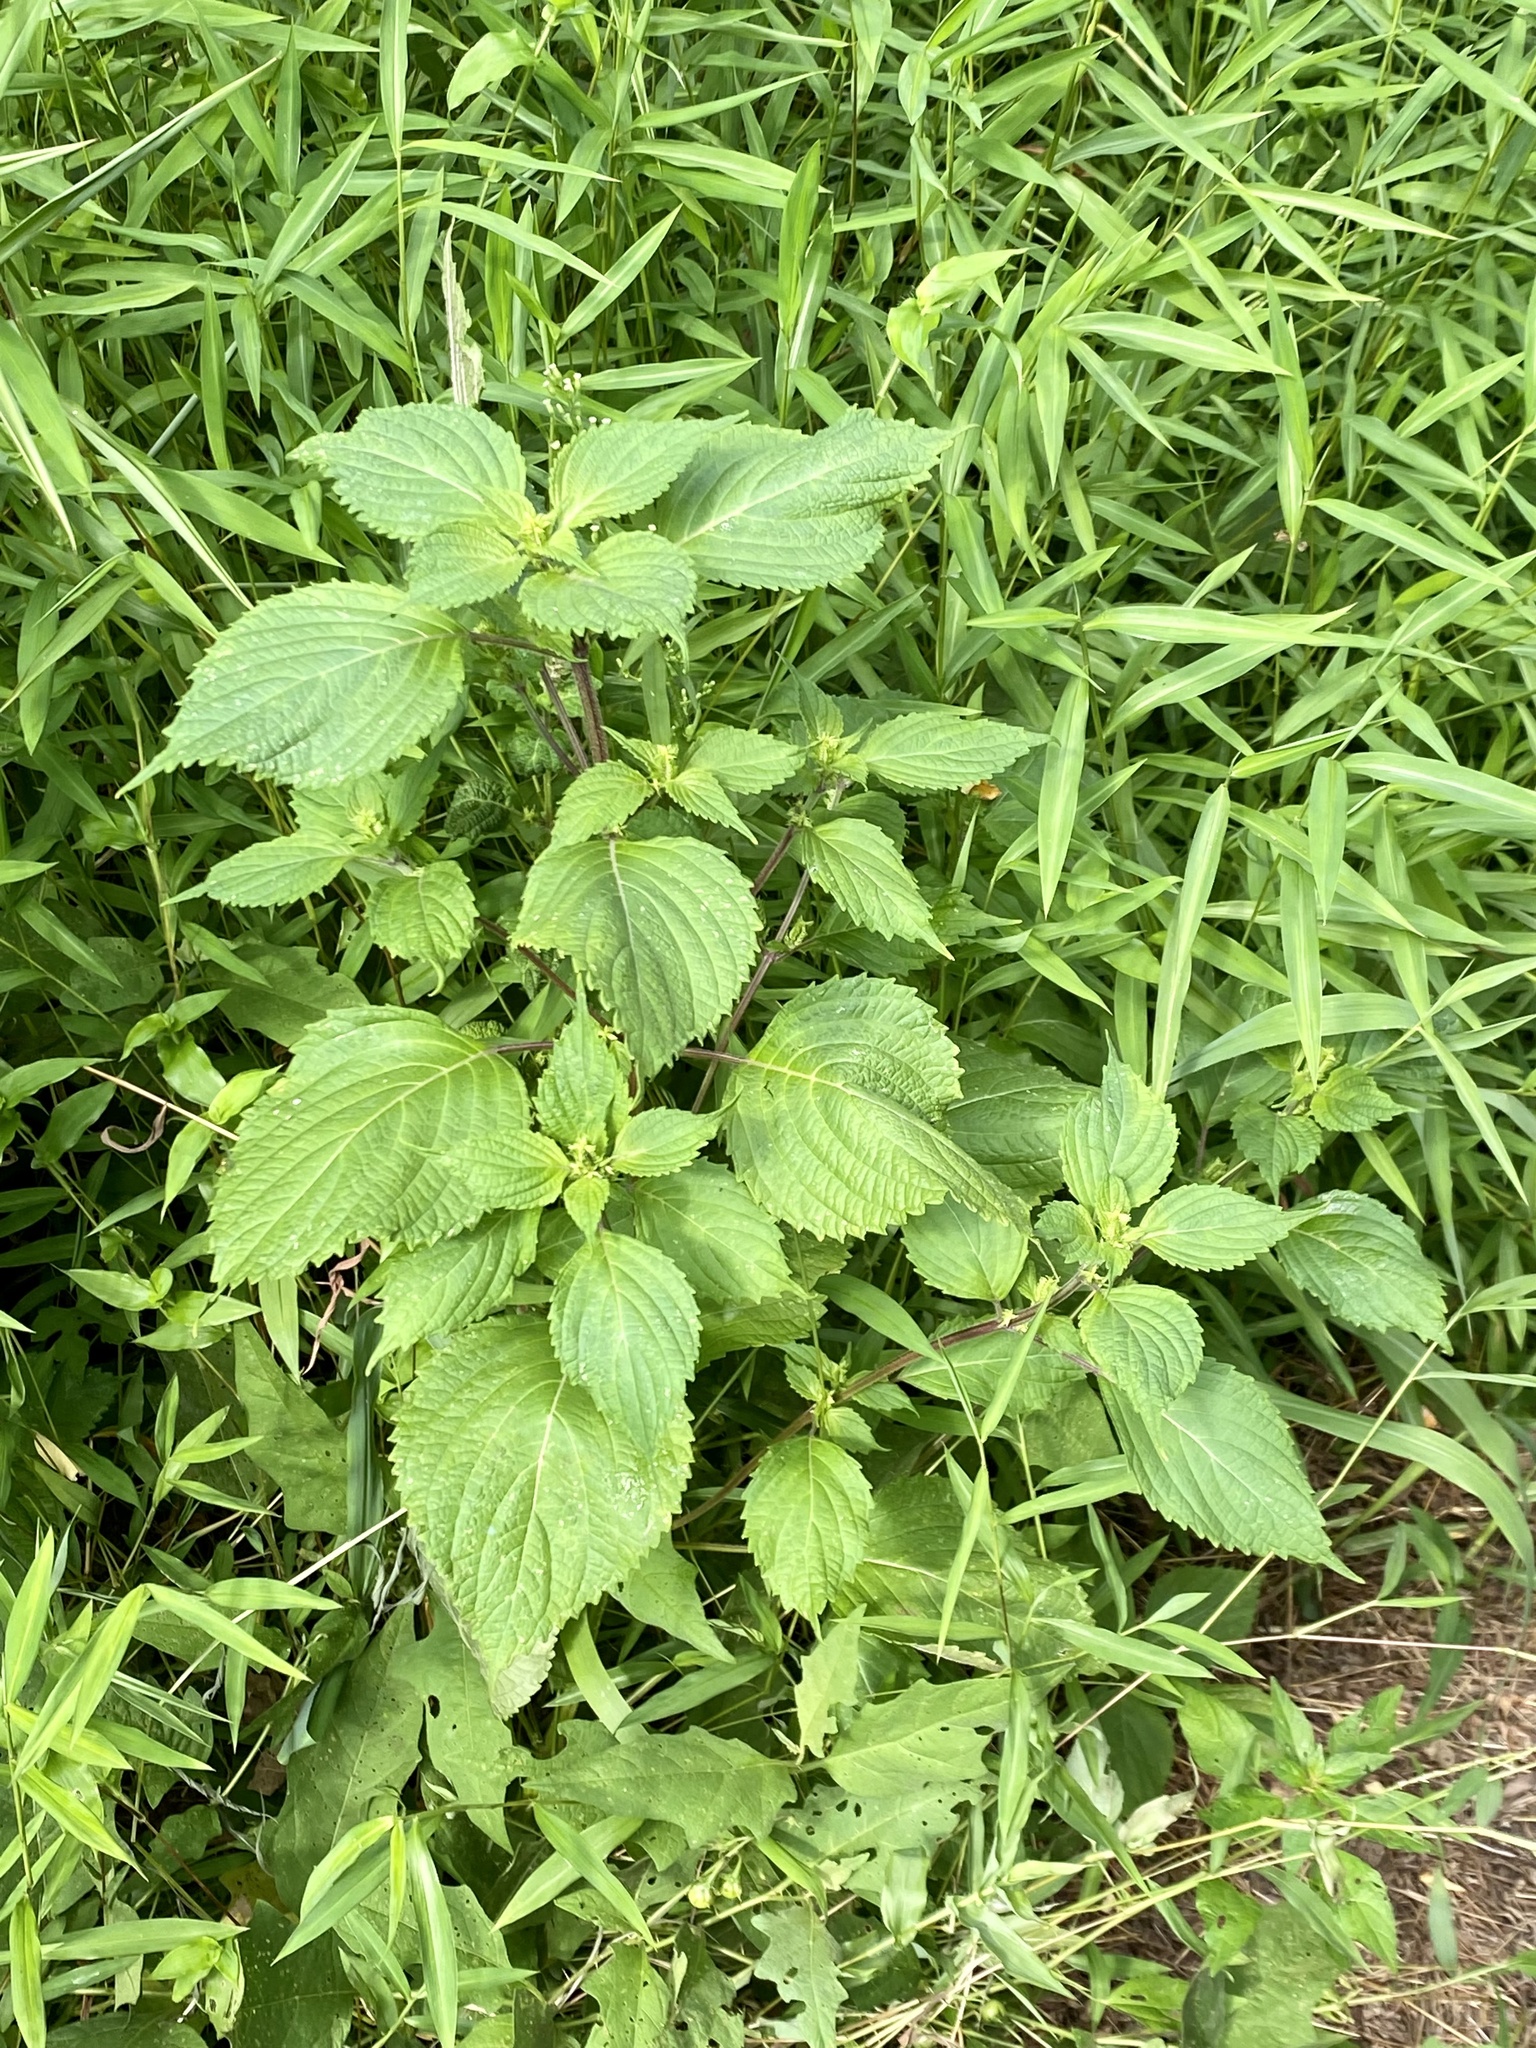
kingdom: Plantae
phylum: Tracheophyta
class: Magnoliopsida
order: Lamiales
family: Lamiaceae
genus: Perilla
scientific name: Perilla frutescens
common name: Perilla
